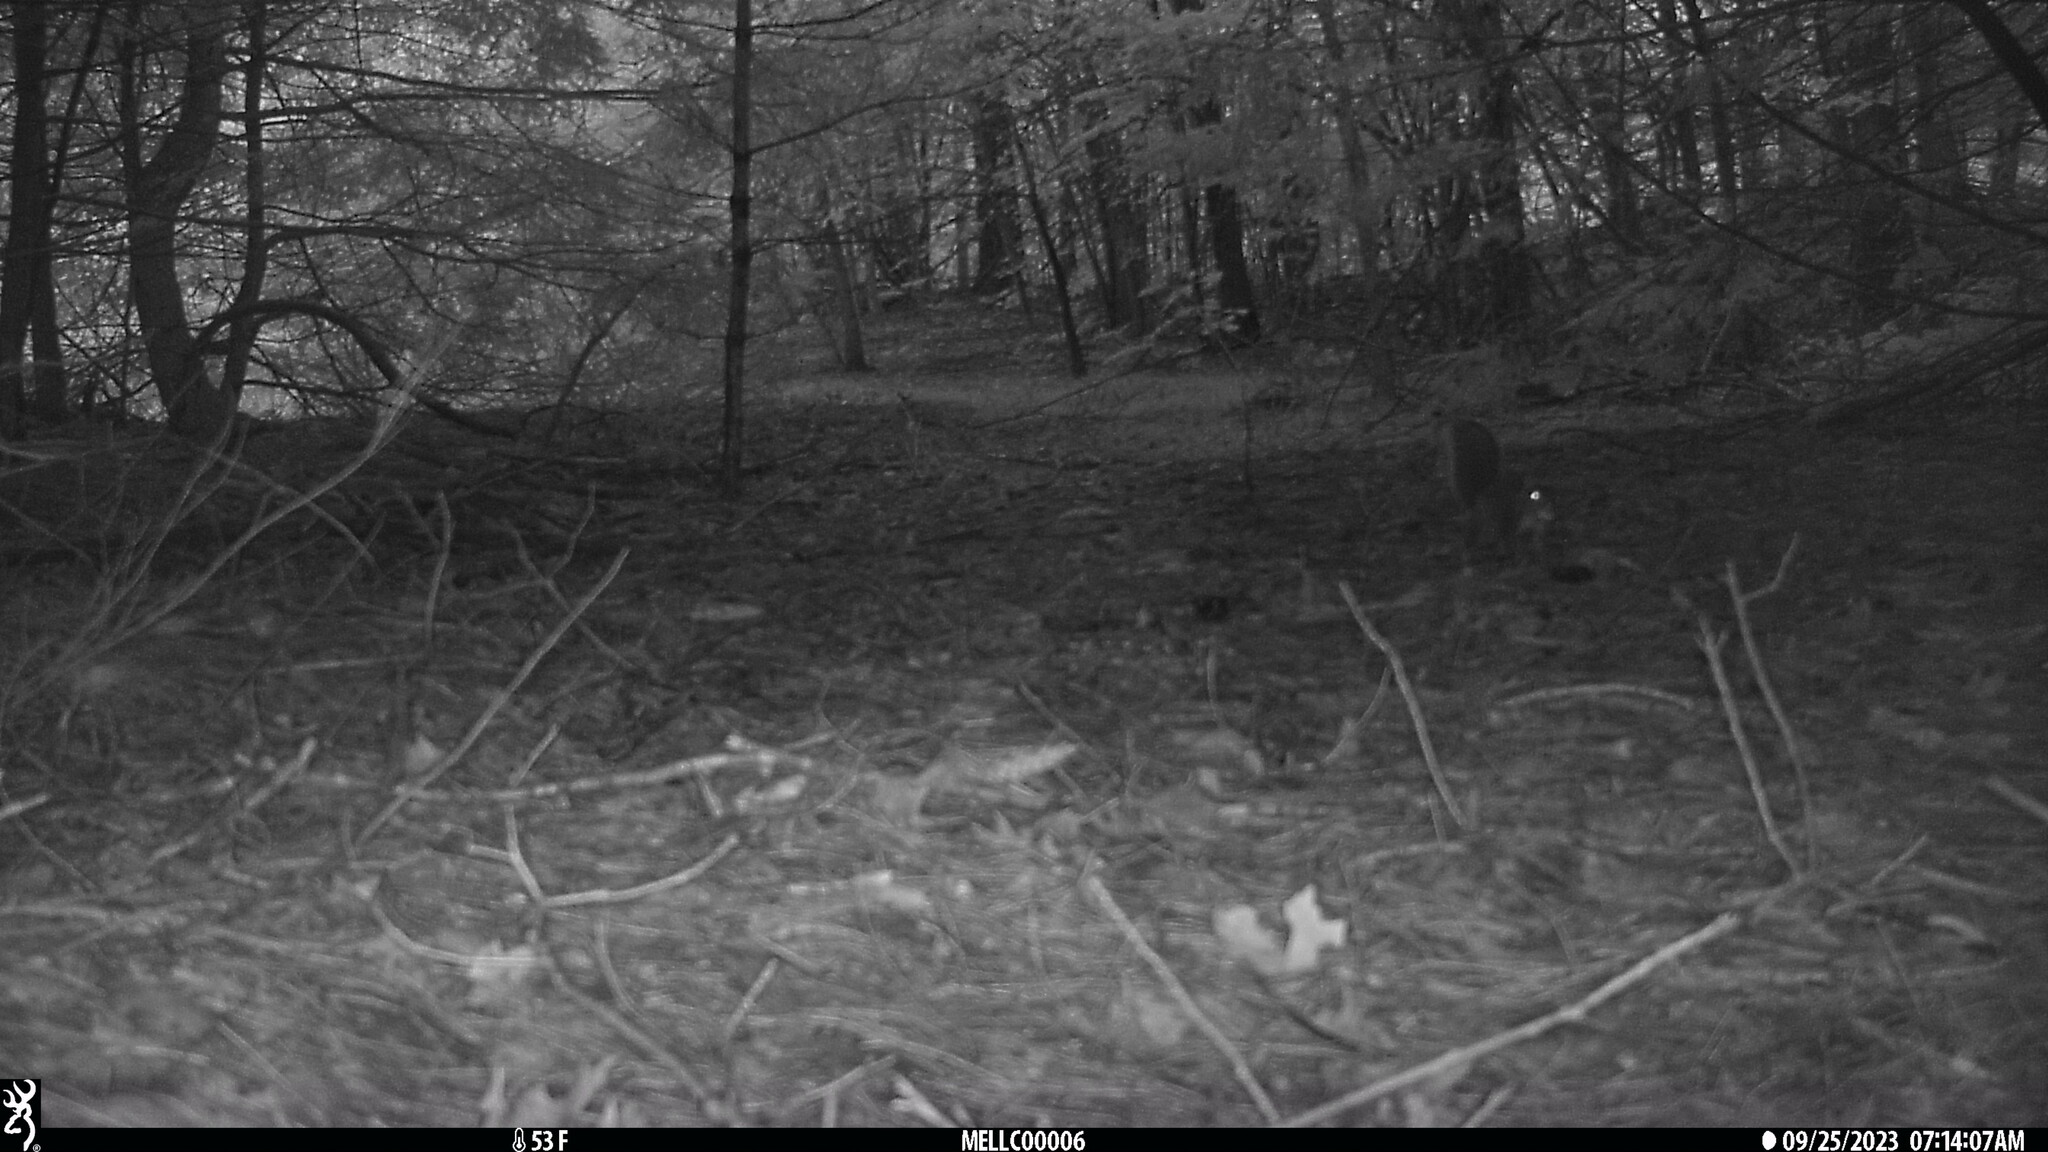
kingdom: Animalia
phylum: Chordata
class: Mammalia
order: Rodentia
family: Sciuridae
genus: Sciurus
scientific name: Sciurus carolinensis
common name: Eastern gray squirrel
